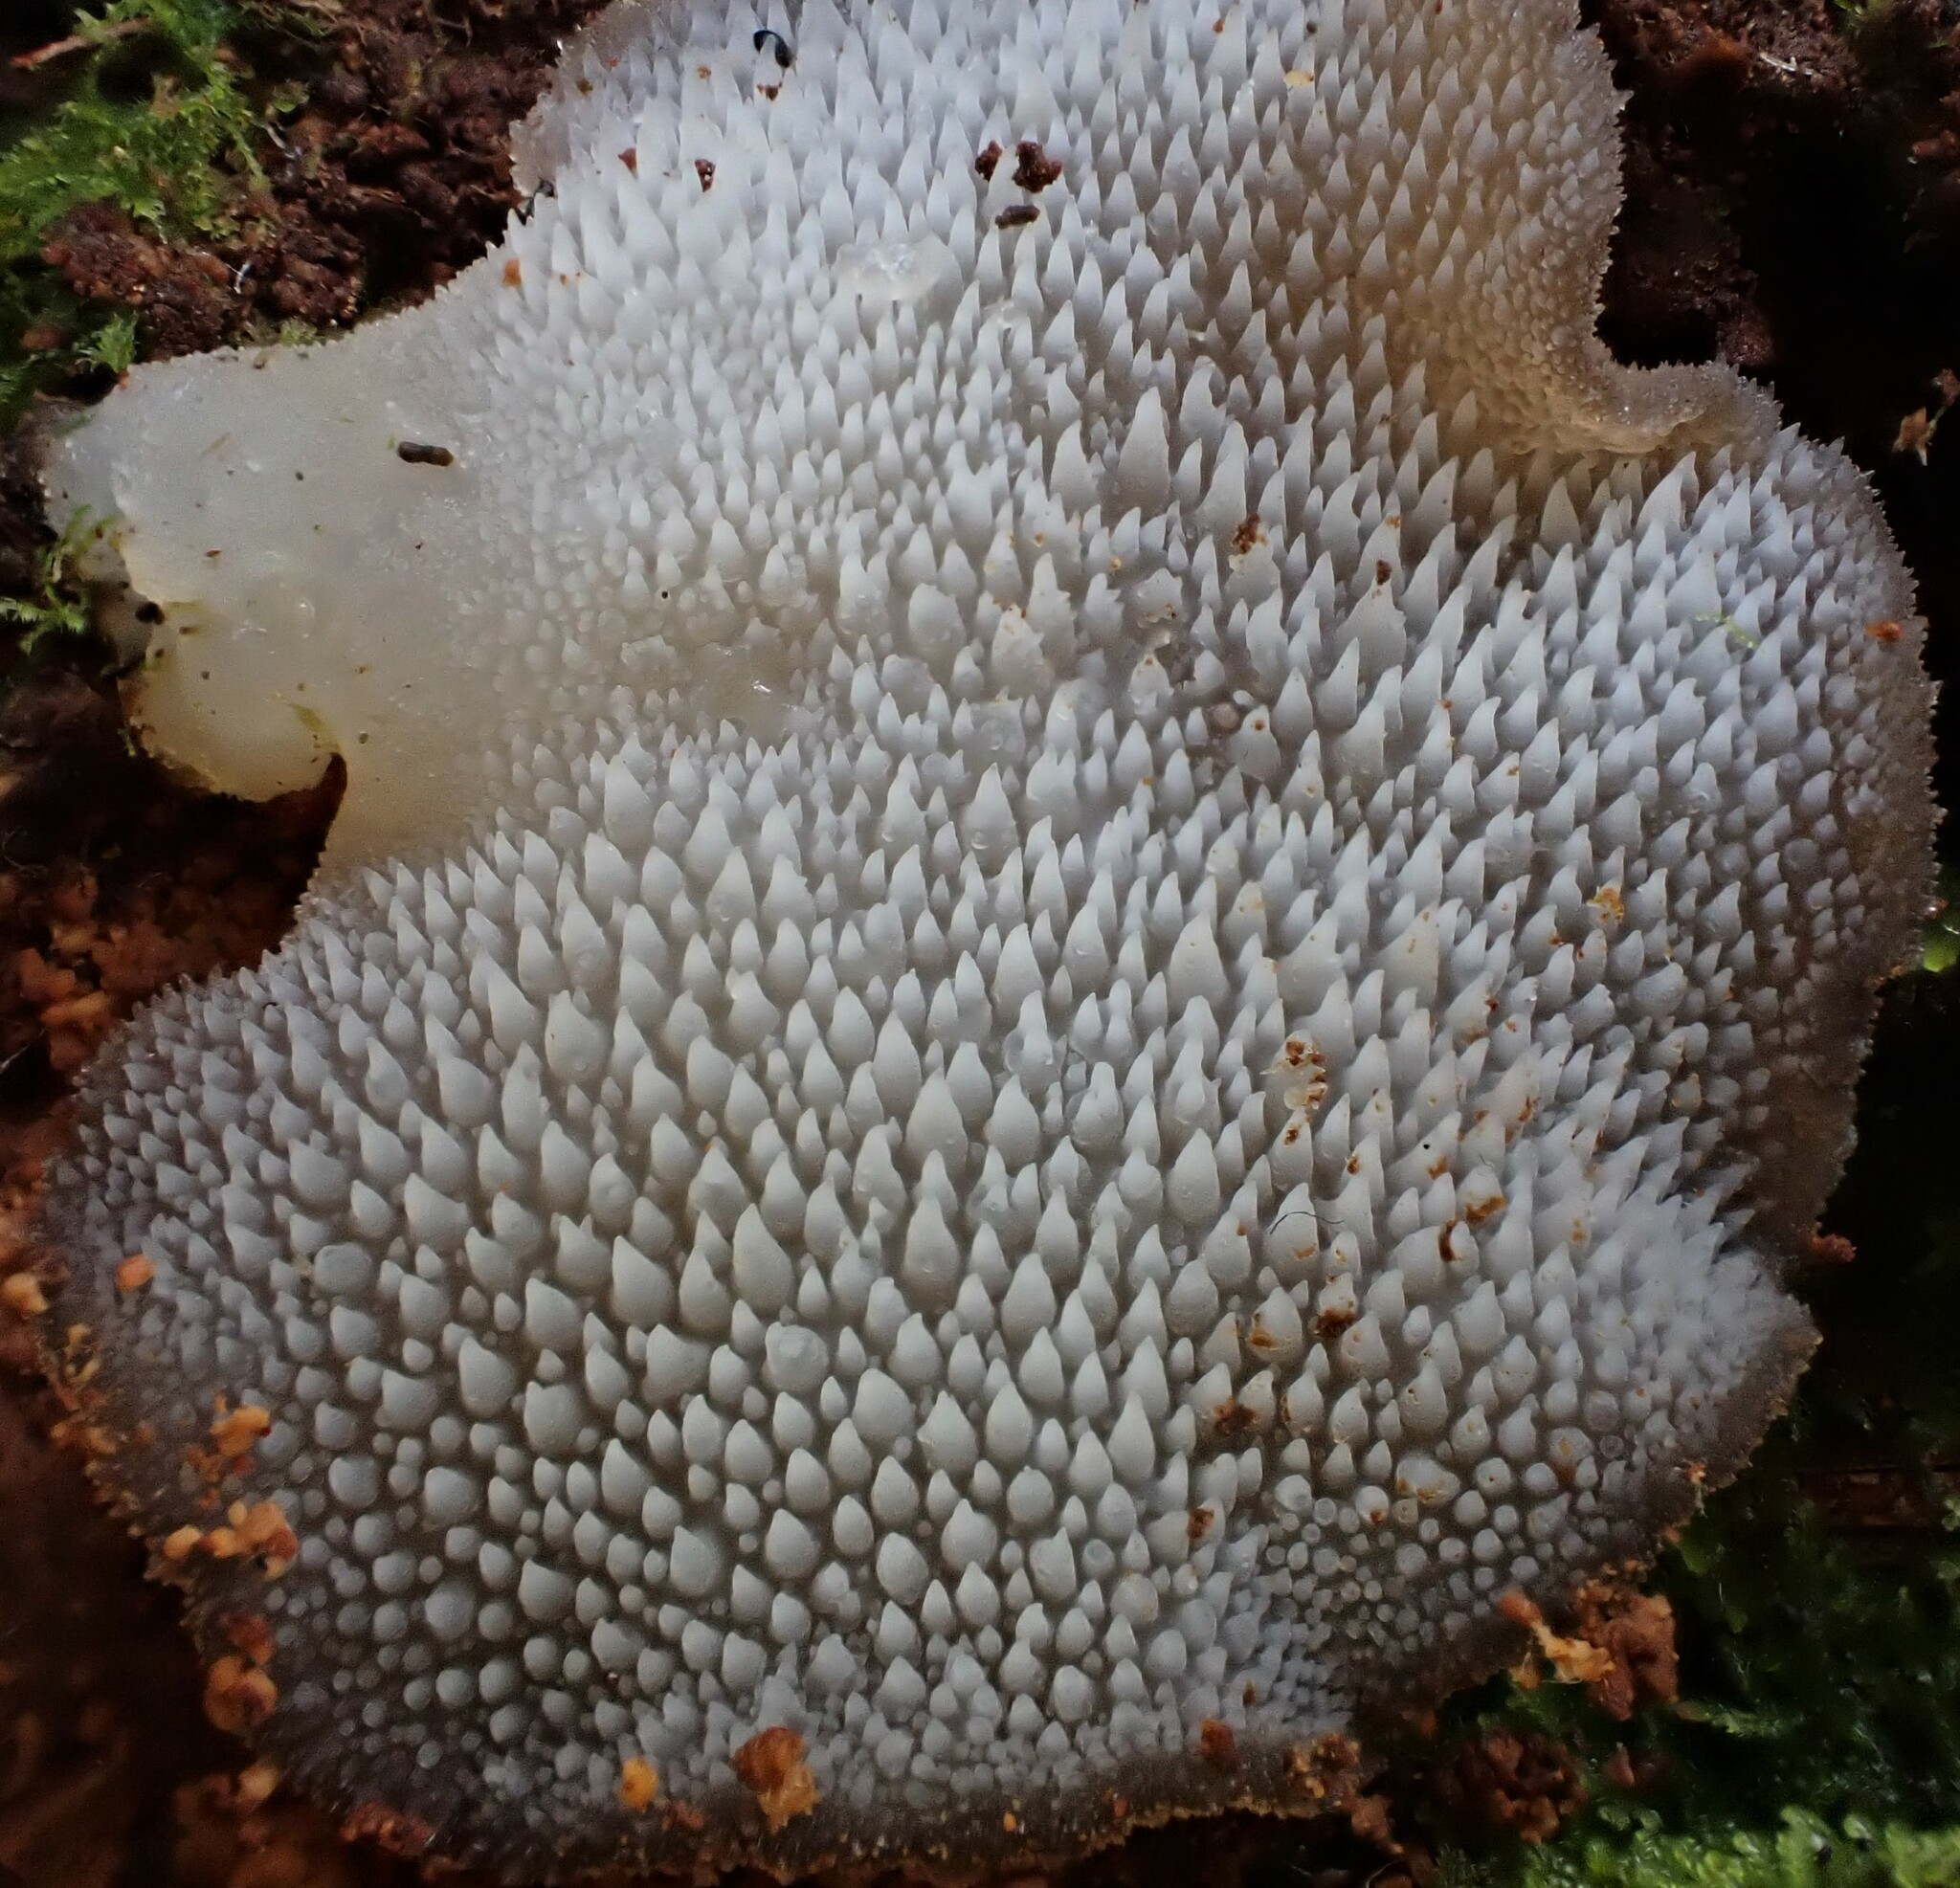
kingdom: Fungi
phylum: Basidiomycota
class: Agaricomycetes
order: Auriculariales
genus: Pseudohydnum
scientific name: Pseudohydnum orbiculare
